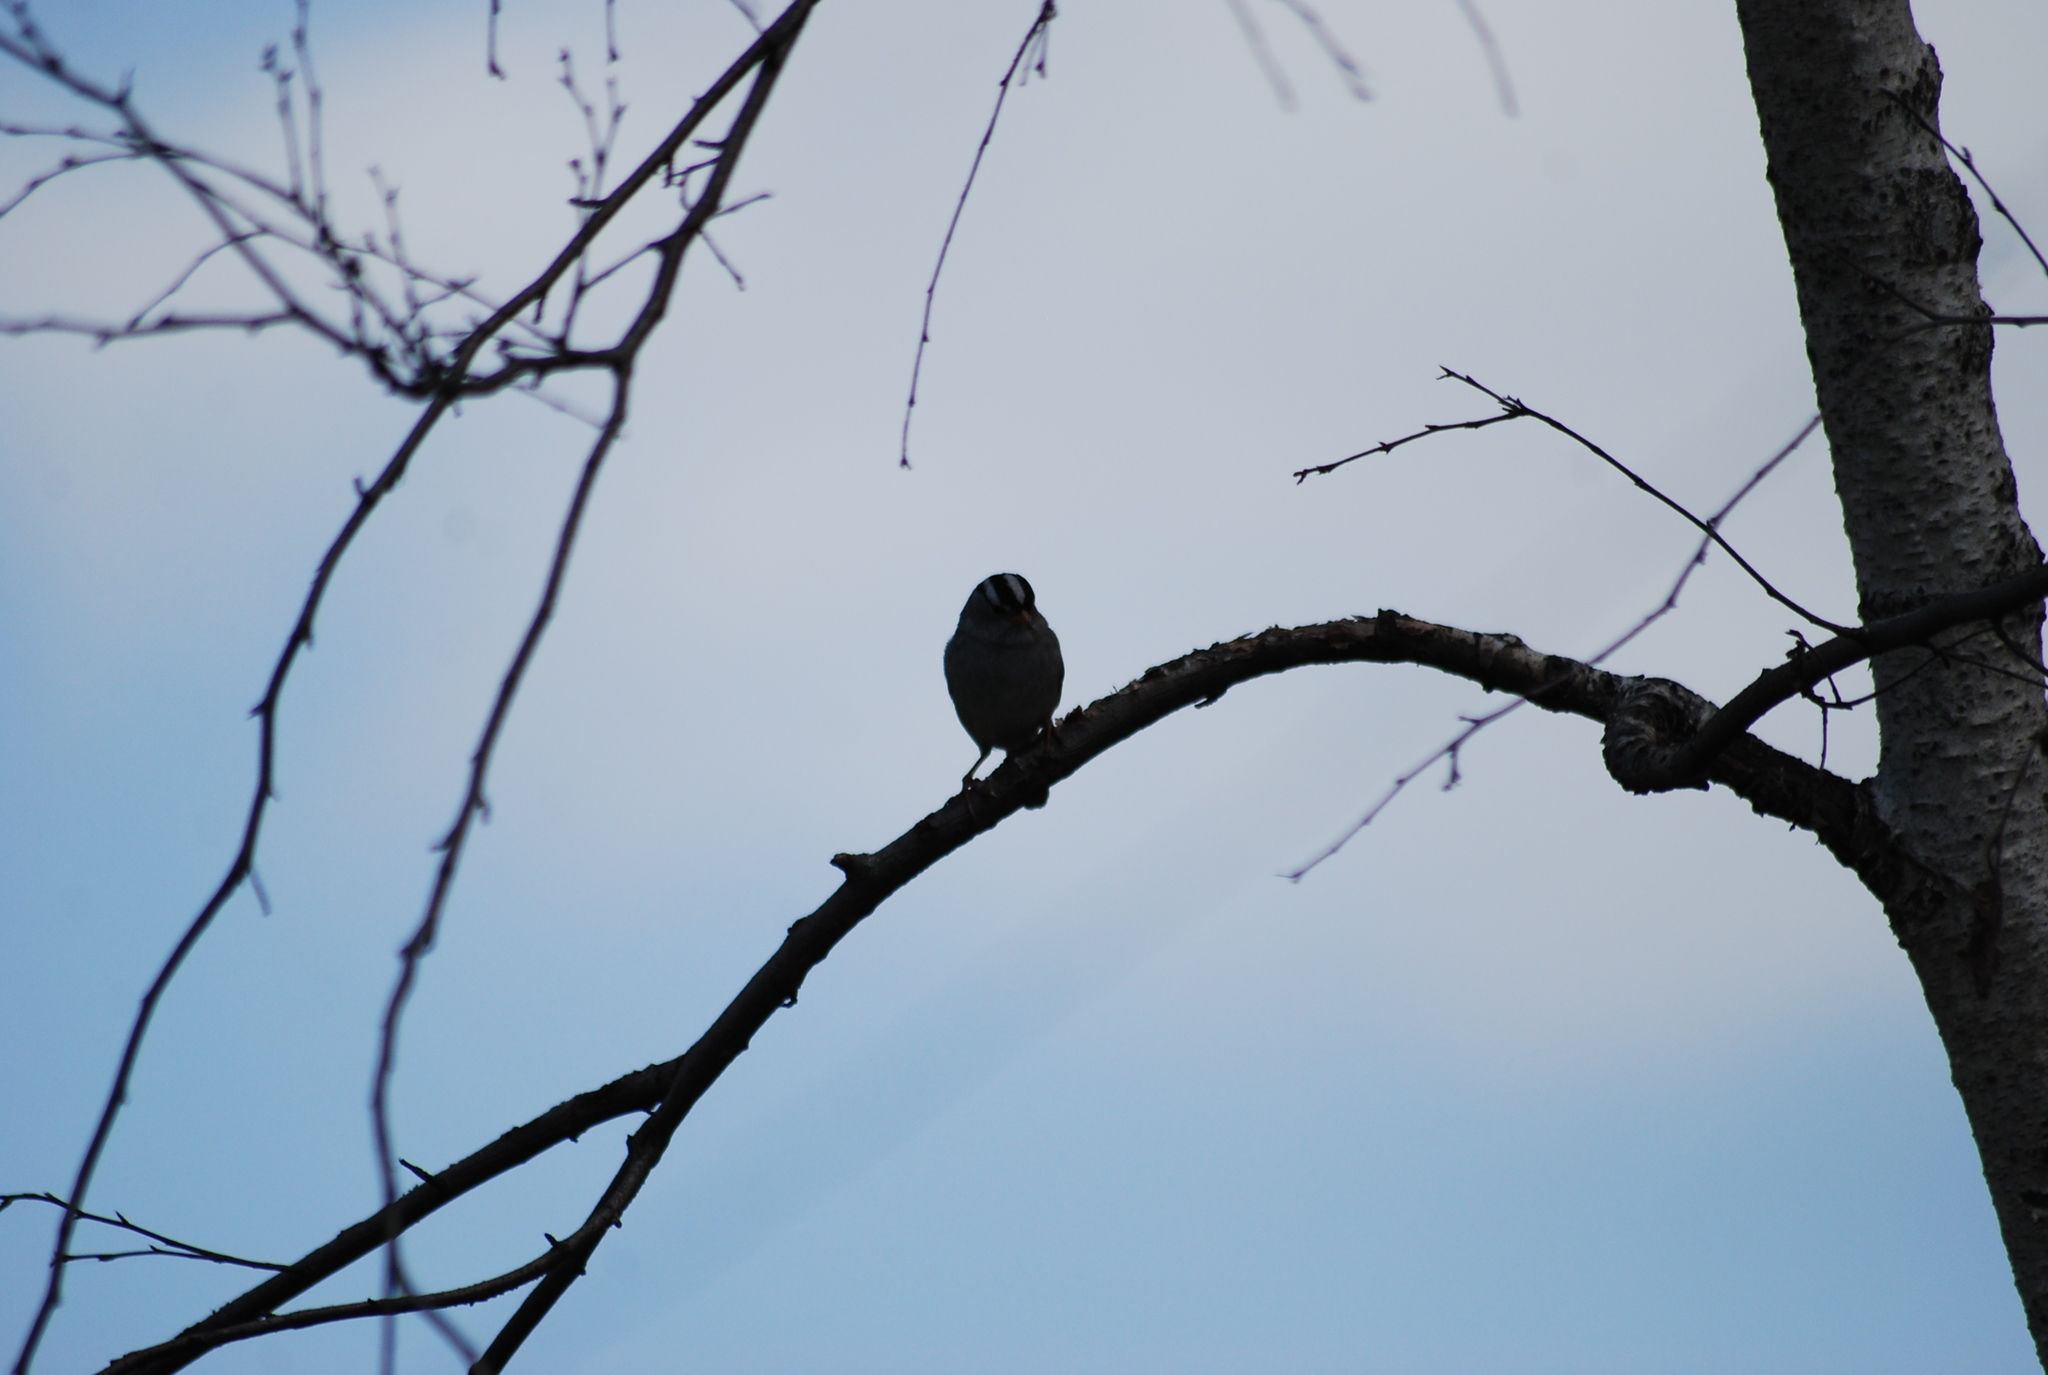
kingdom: Animalia
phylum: Chordata
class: Aves
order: Passeriformes
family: Passerellidae
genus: Zonotrichia
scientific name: Zonotrichia leucophrys
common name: White-crowned sparrow
